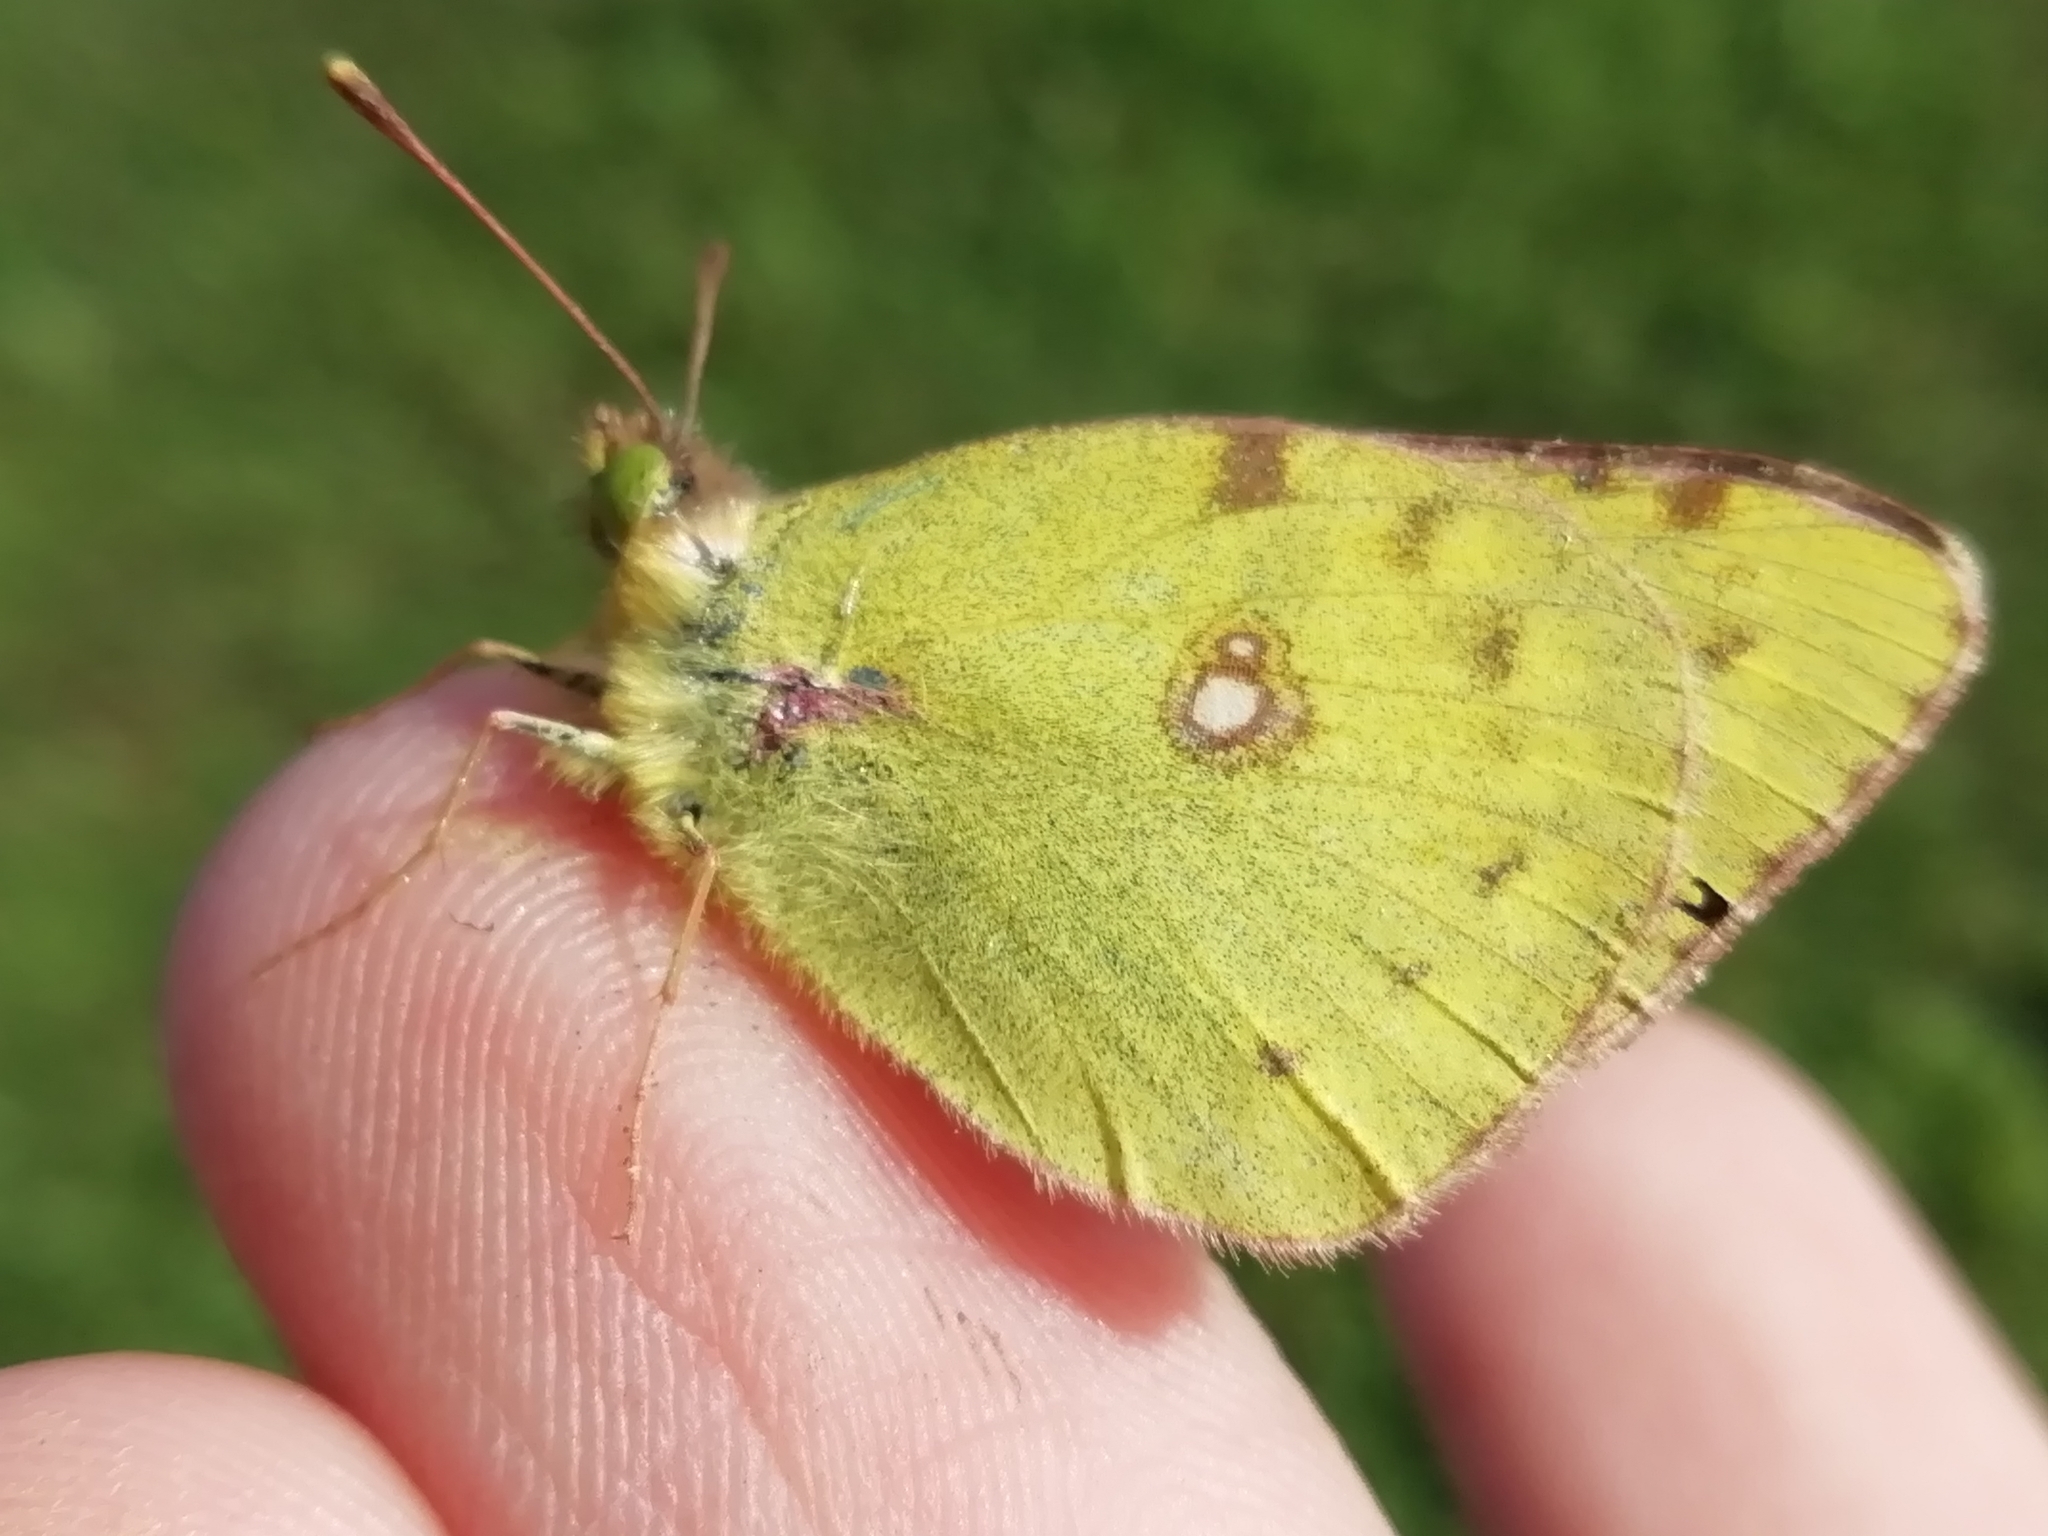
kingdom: Animalia
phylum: Arthropoda
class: Insecta
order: Lepidoptera
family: Pieridae
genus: Colias
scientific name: Colias hyale
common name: Pale clouded yellow
